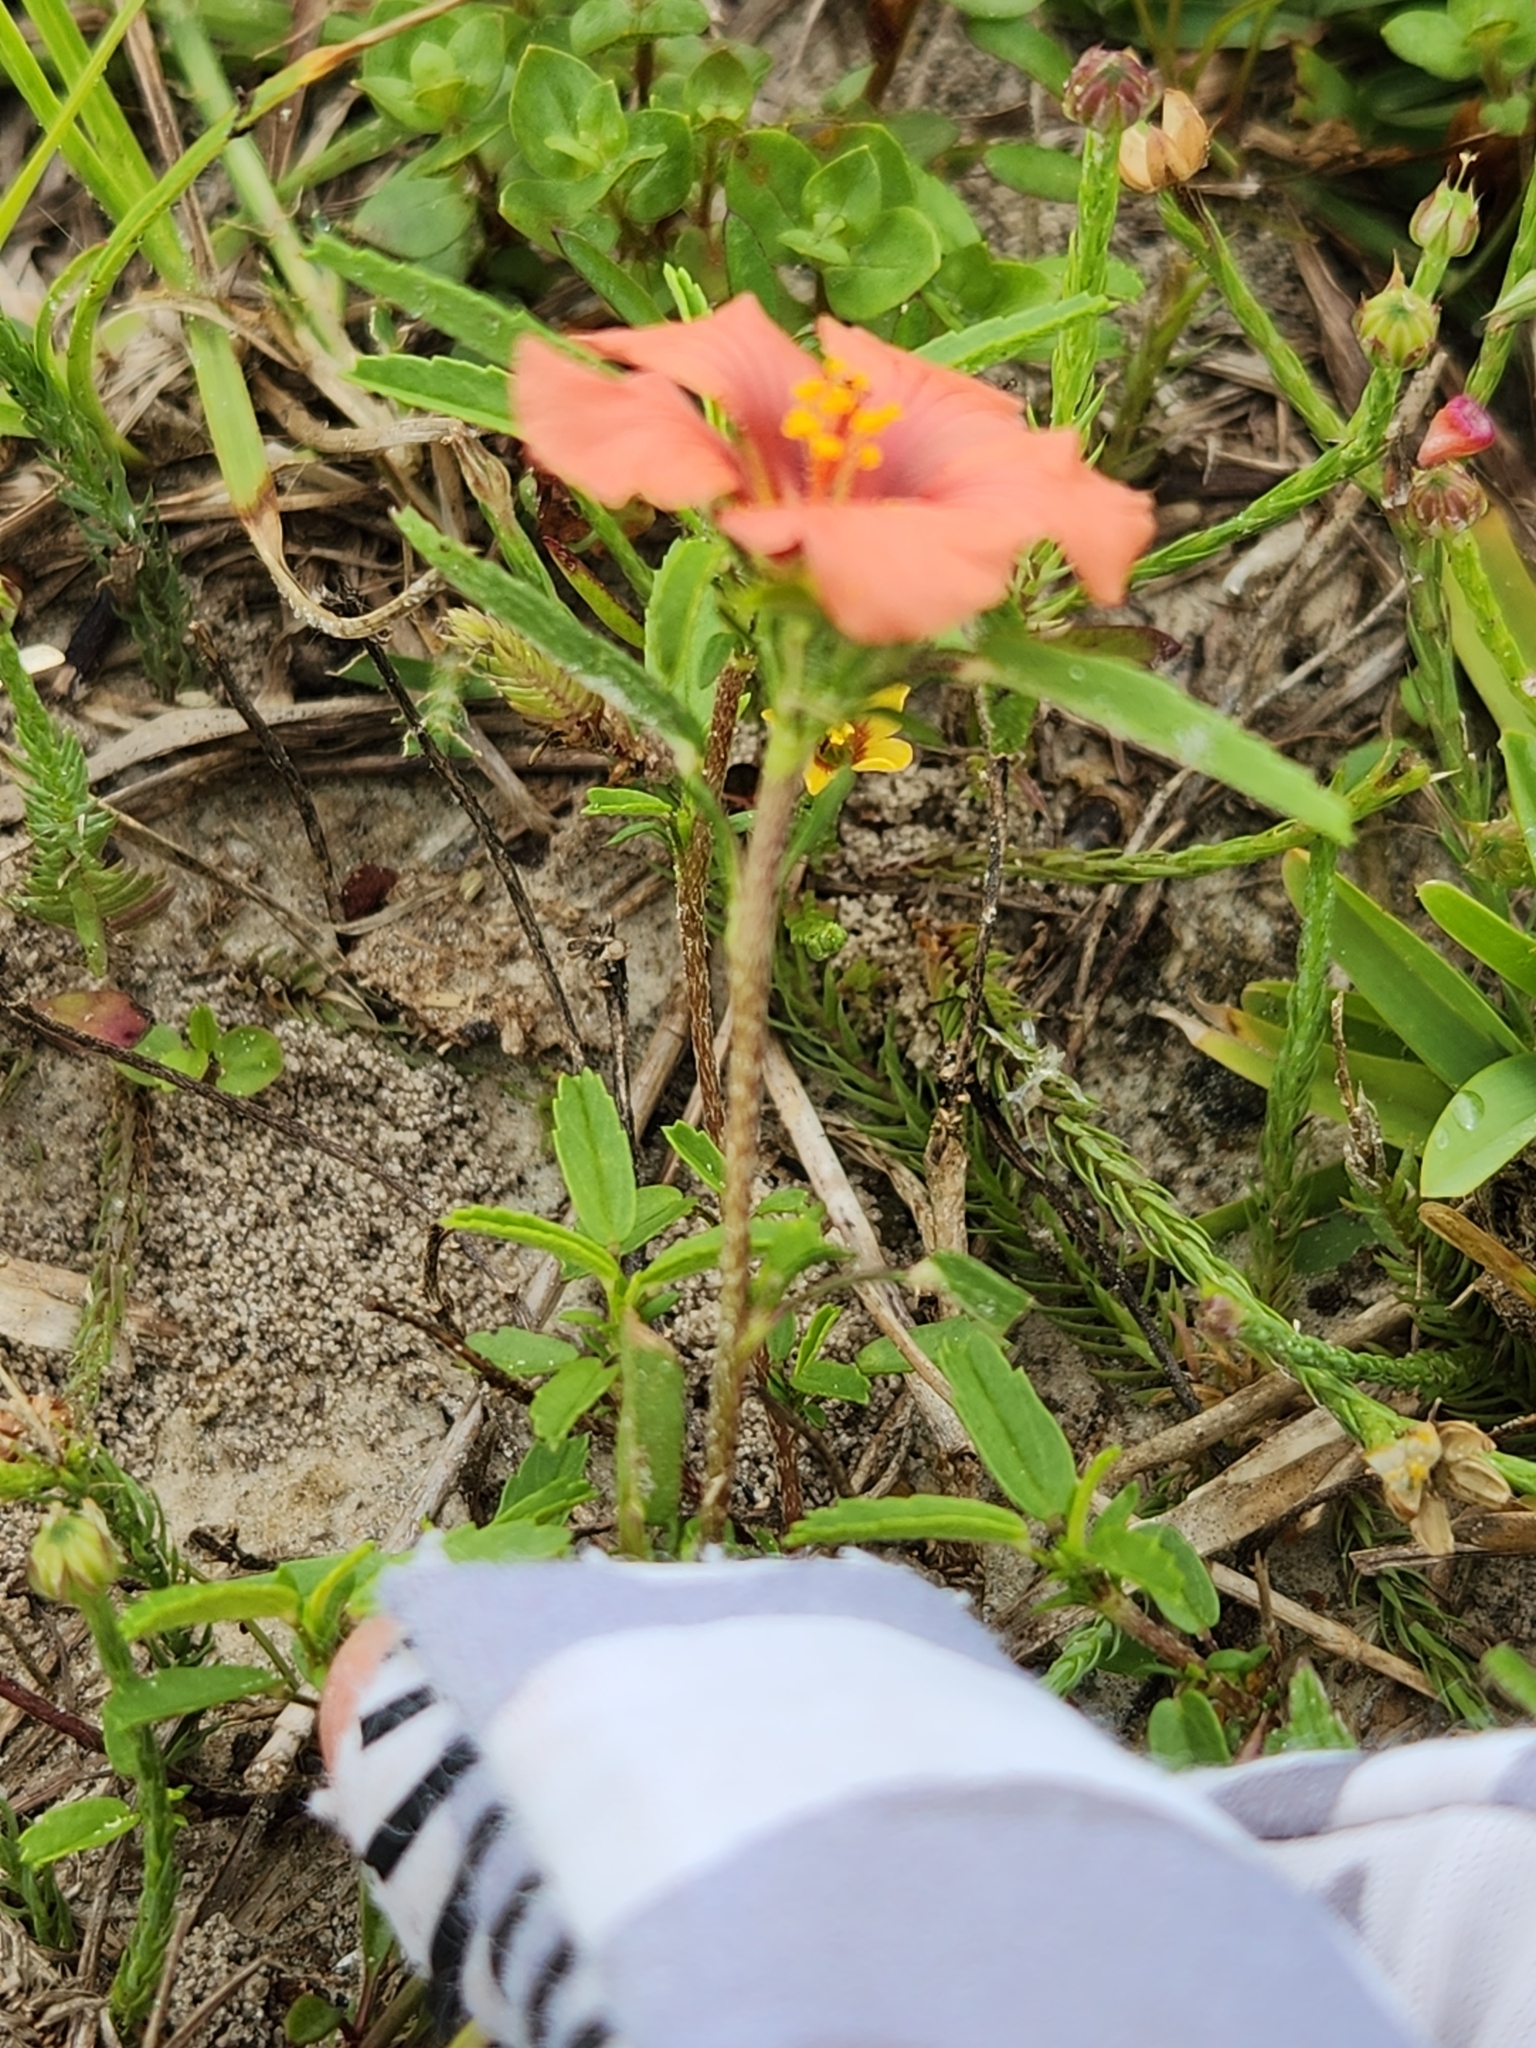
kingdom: Plantae
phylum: Tracheophyta
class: Magnoliopsida
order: Malvales
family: Malvaceae
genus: Sida
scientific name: Sida ciliaris
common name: Bracted fanpetals
